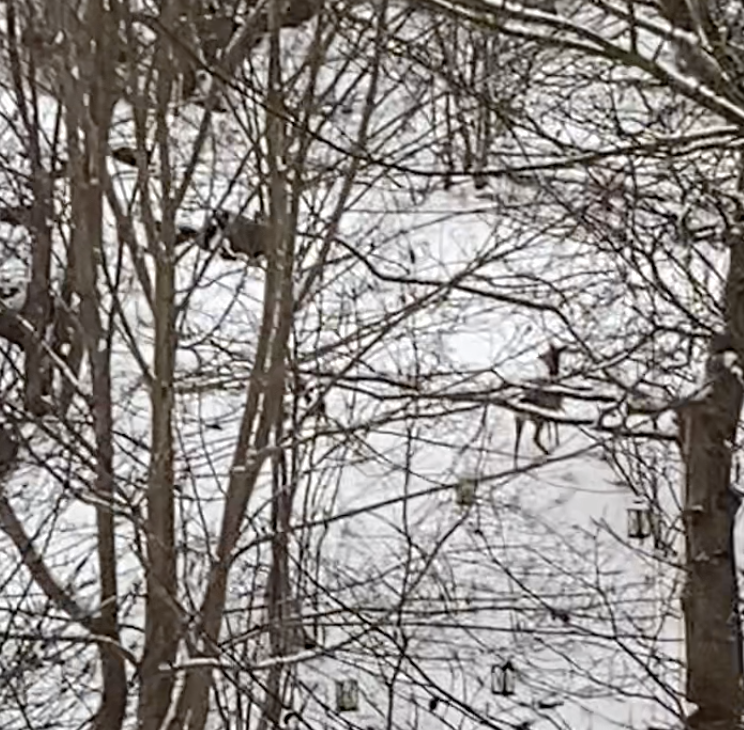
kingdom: Animalia
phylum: Chordata
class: Mammalia
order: Artiodactyla
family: Cervidae
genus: Capreolus
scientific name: Capreolus capreolus
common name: Western roe deer
